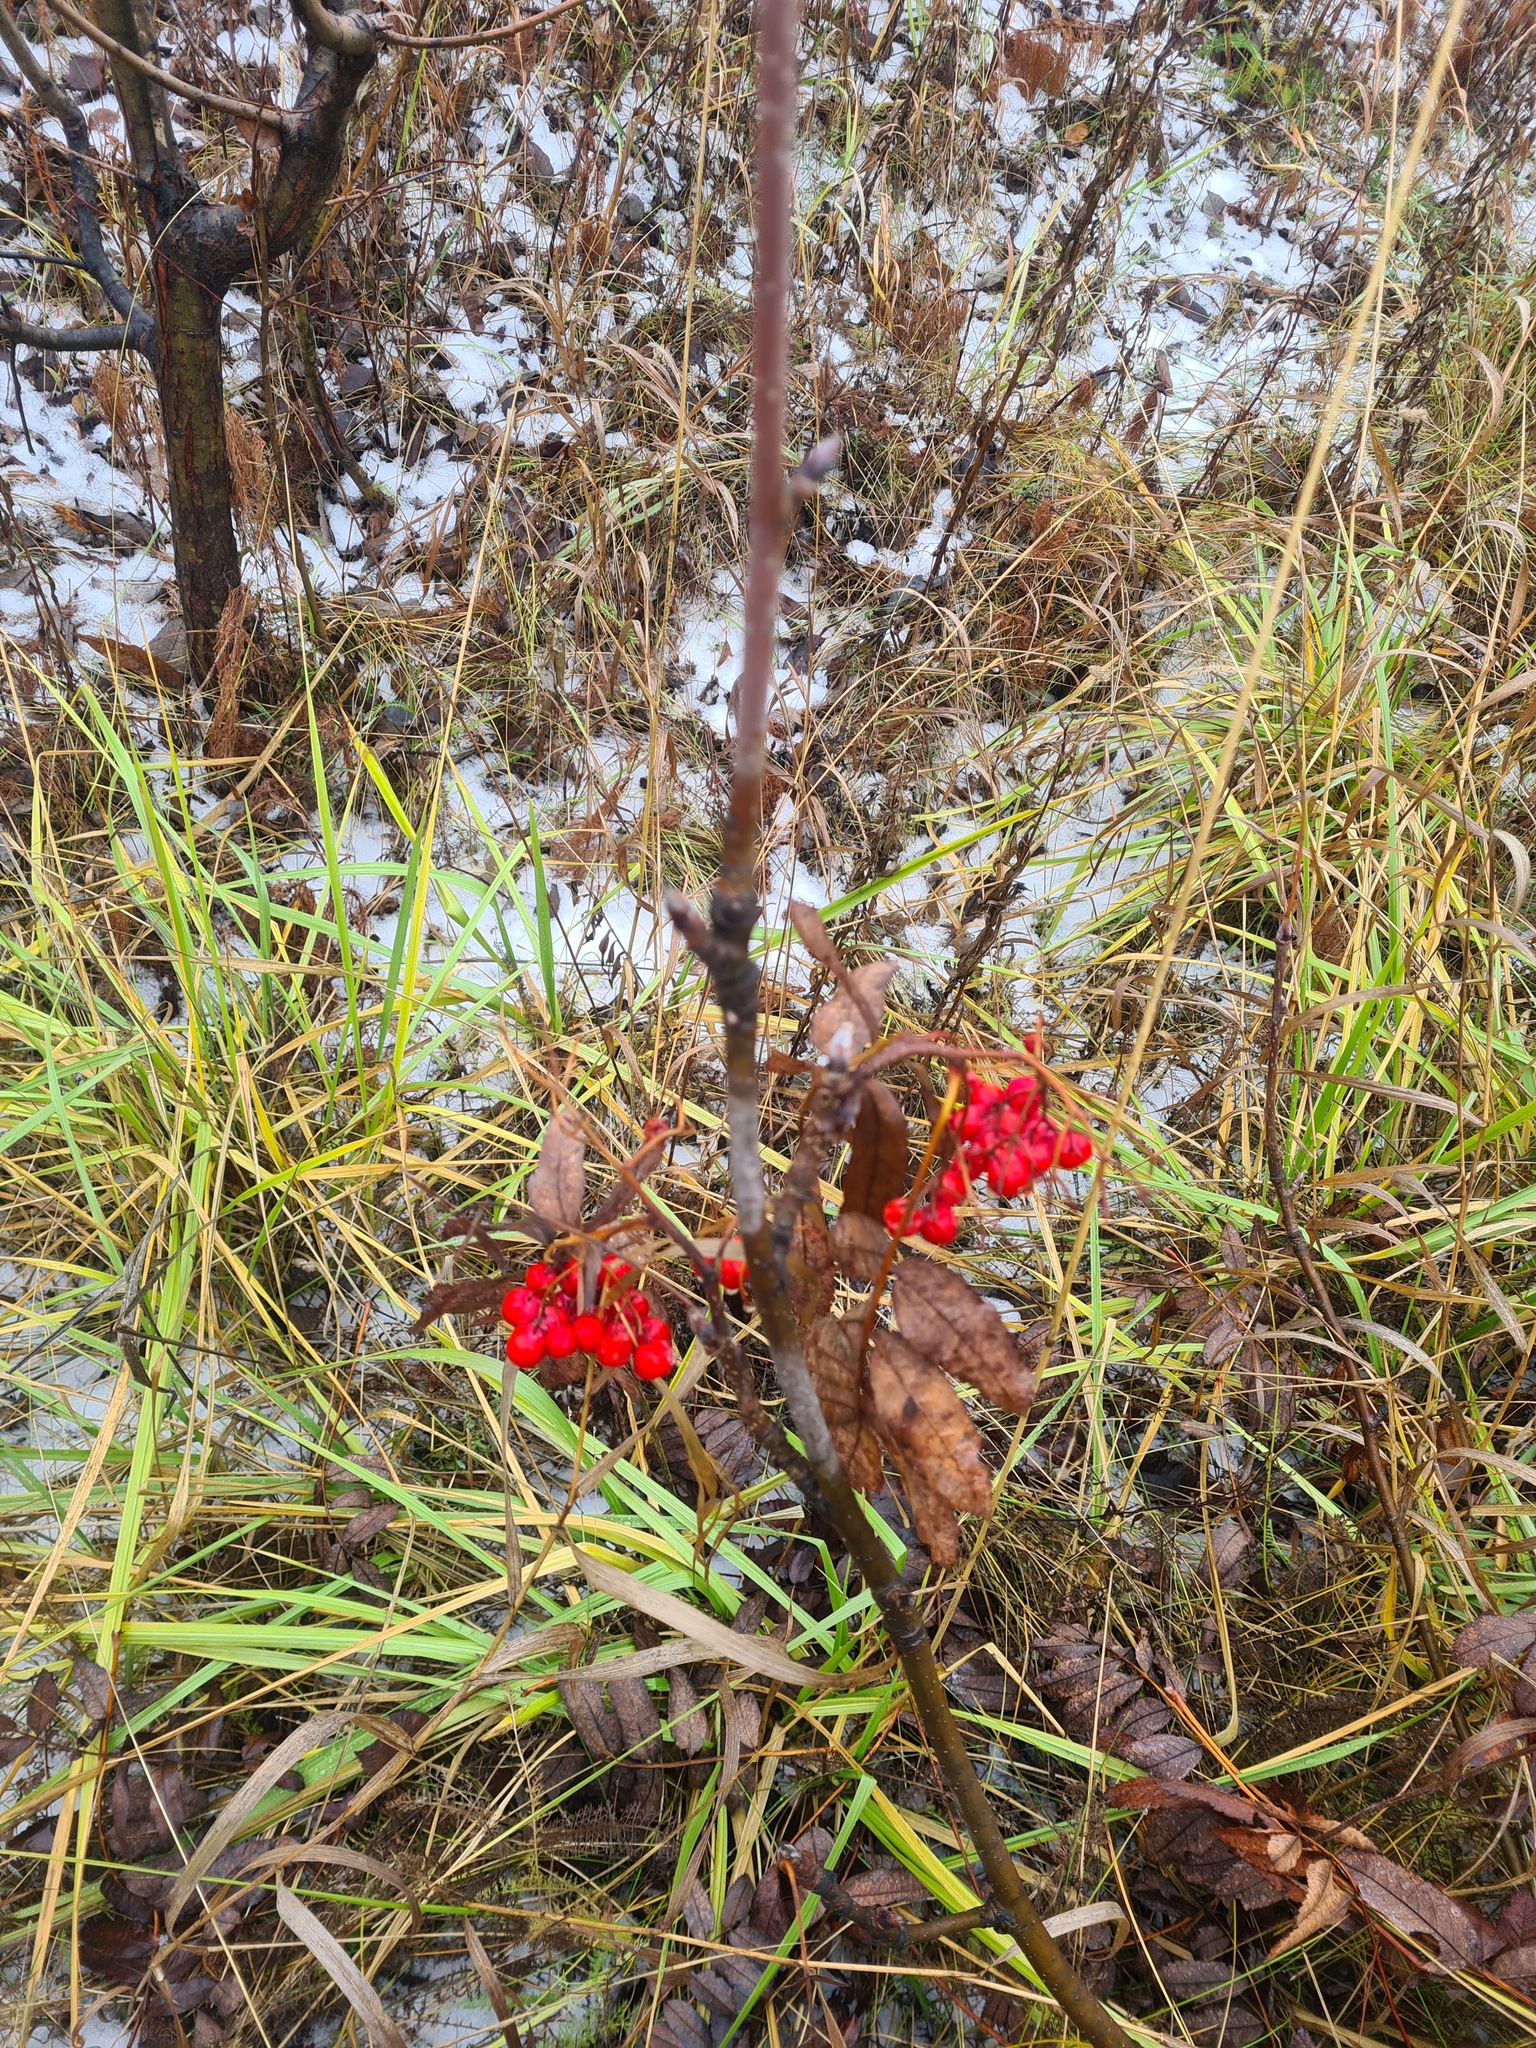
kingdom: Plantae
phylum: Tracheophyta
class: Magnoliopsida
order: Rosales
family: Rosaceae
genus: Sorbus
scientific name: Sorbus aucuparia
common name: Rowan
